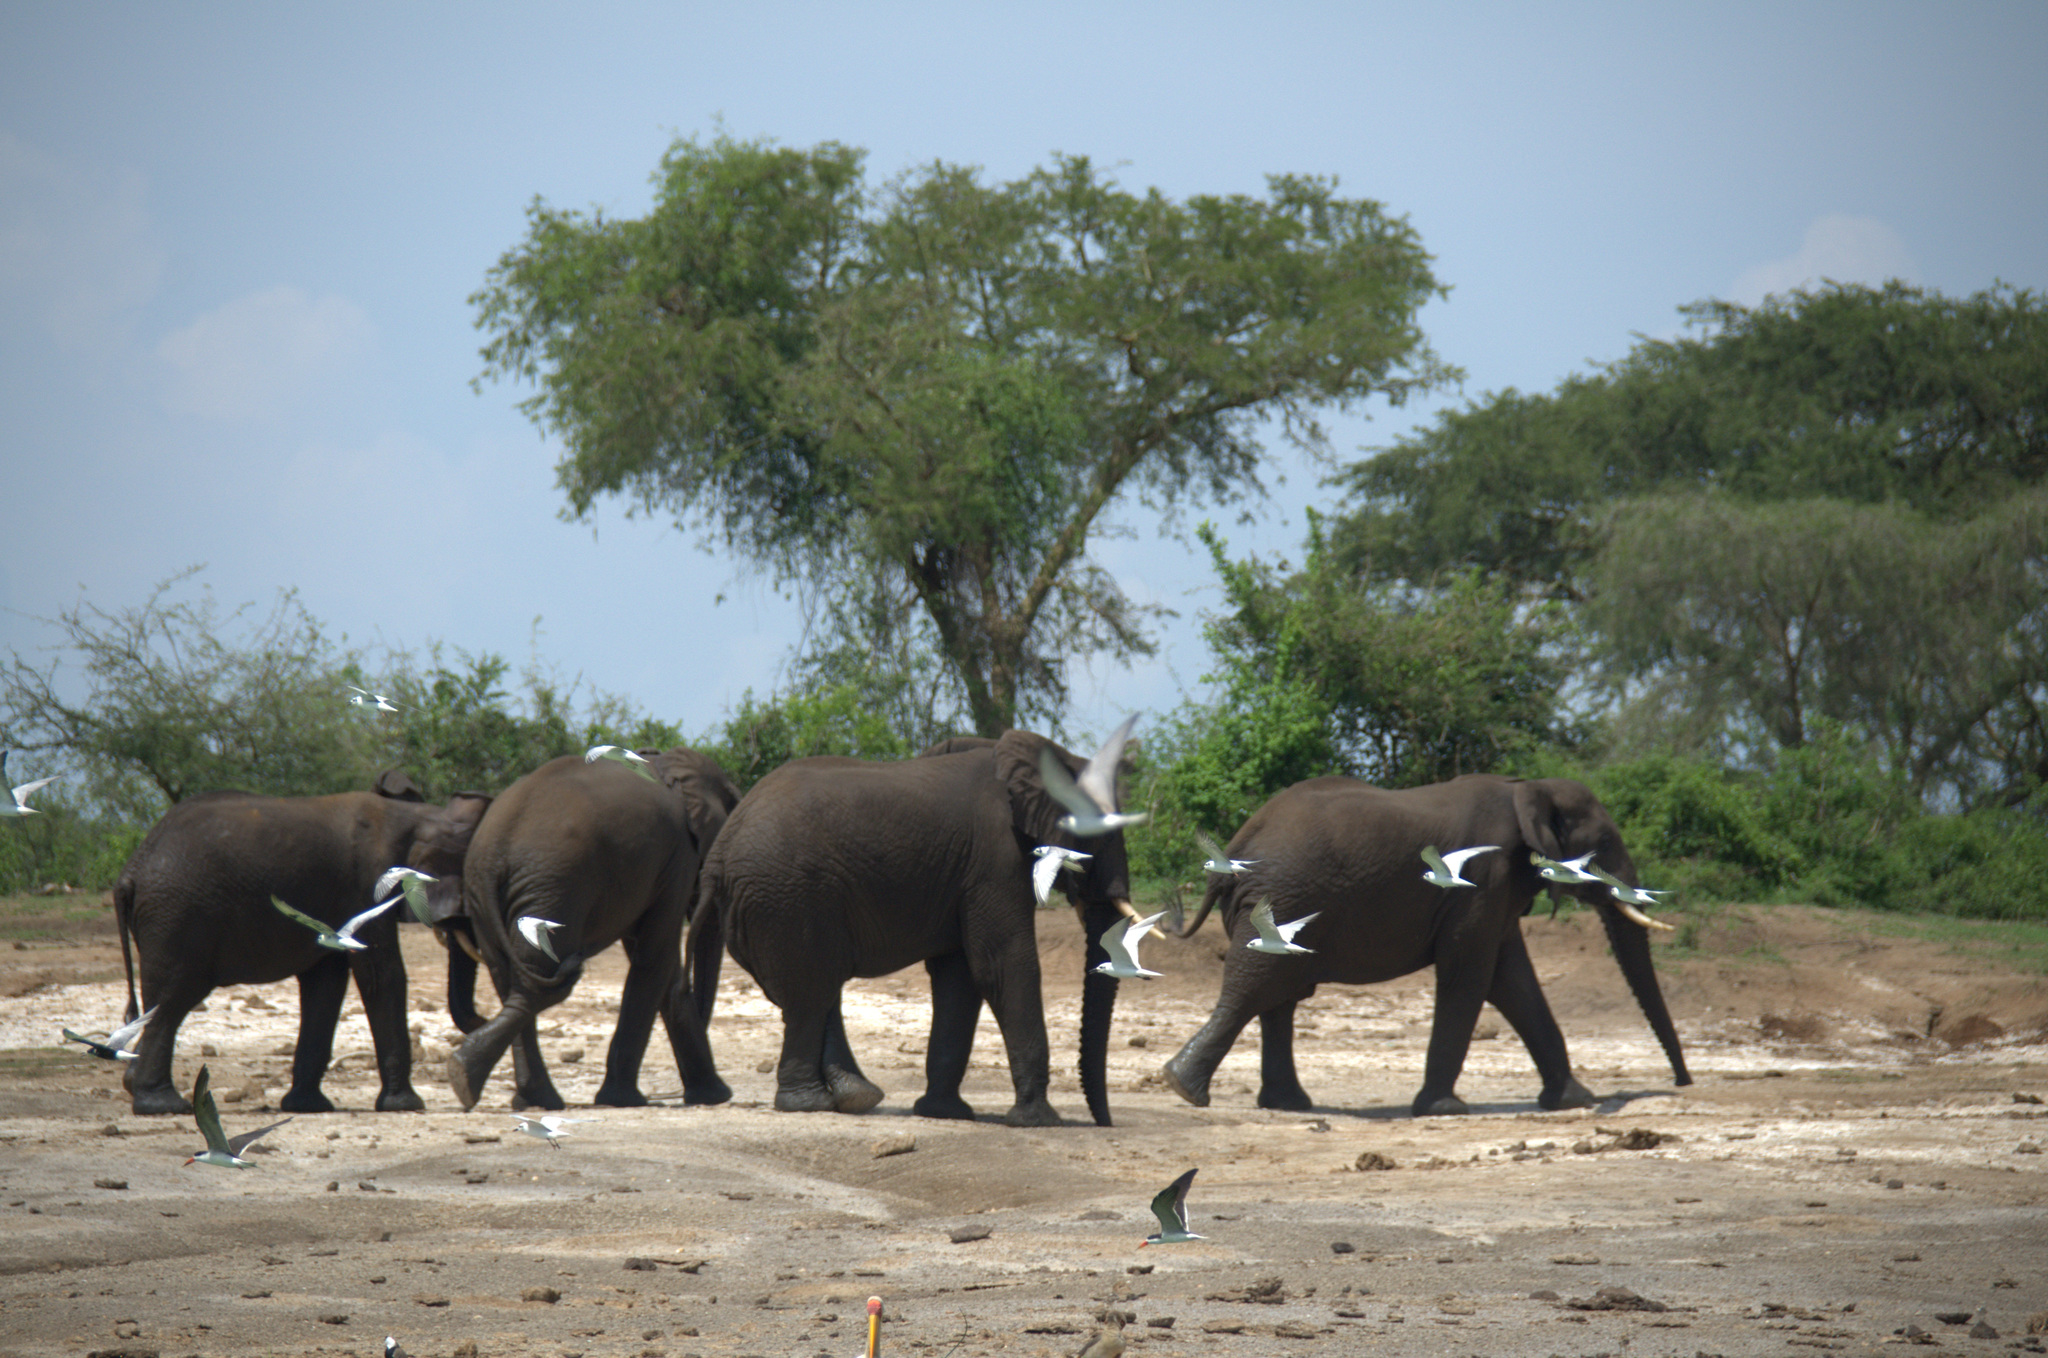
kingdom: Animalia
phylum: Chordata
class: Aves
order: Charadriiformes
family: Laridae
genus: Rynchops
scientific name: Rynchops flavirostris
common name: African skimmer
